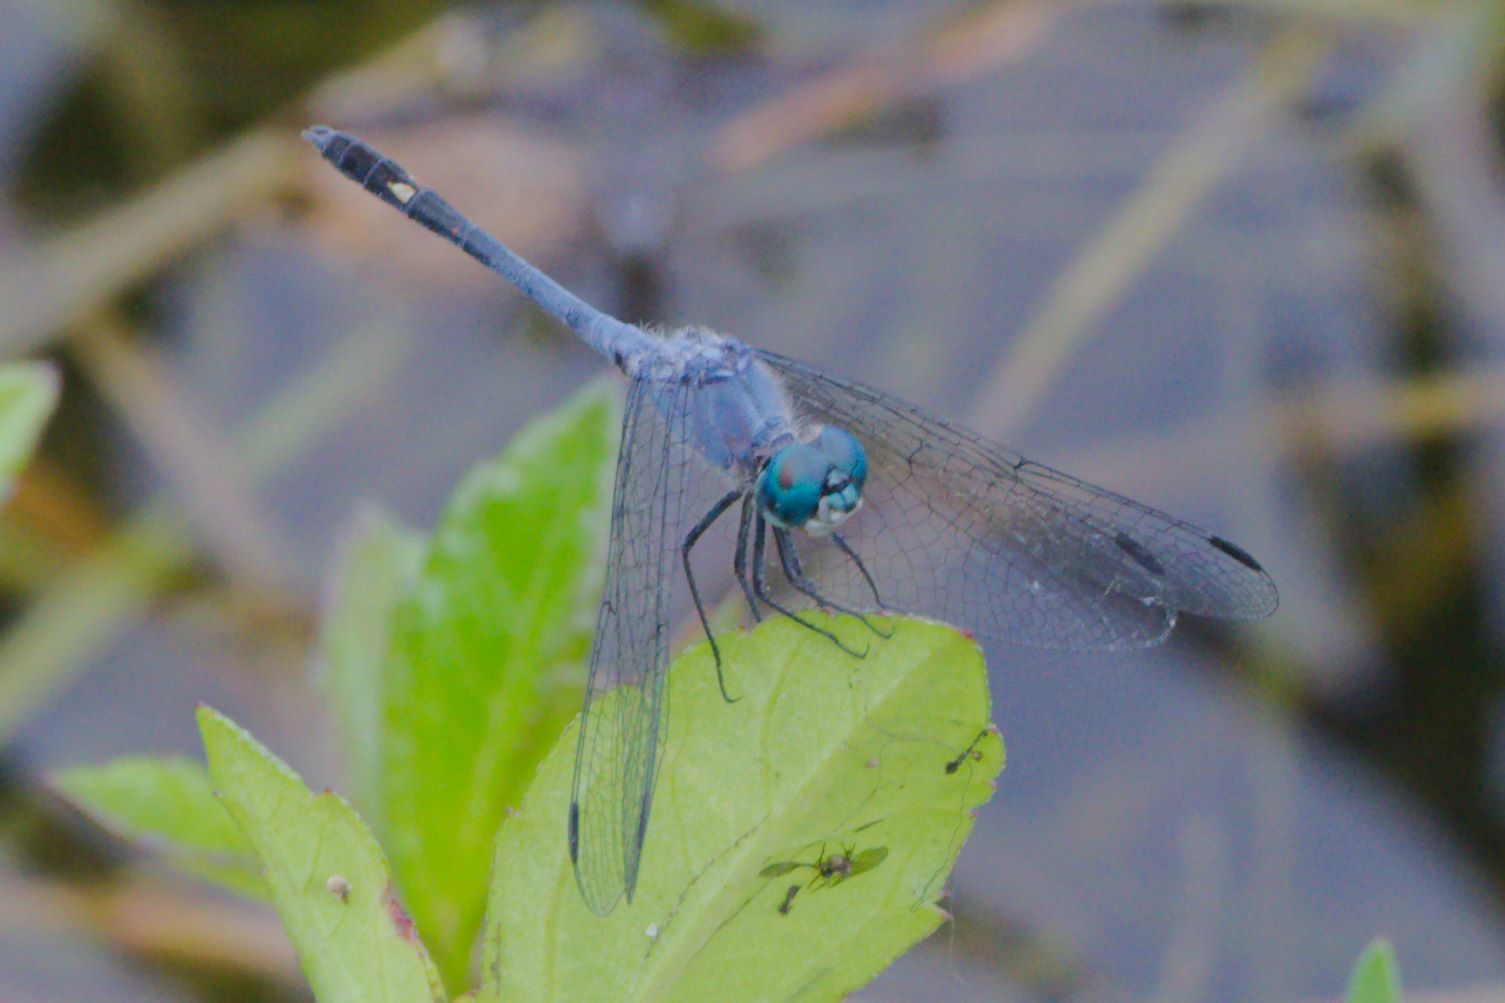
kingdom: Animalia
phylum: Arthropoda
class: Insecta
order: Odonata
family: Libellulidae
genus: Micrathyria
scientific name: Micrathyria aequalis
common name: Spot-tailed dasher
